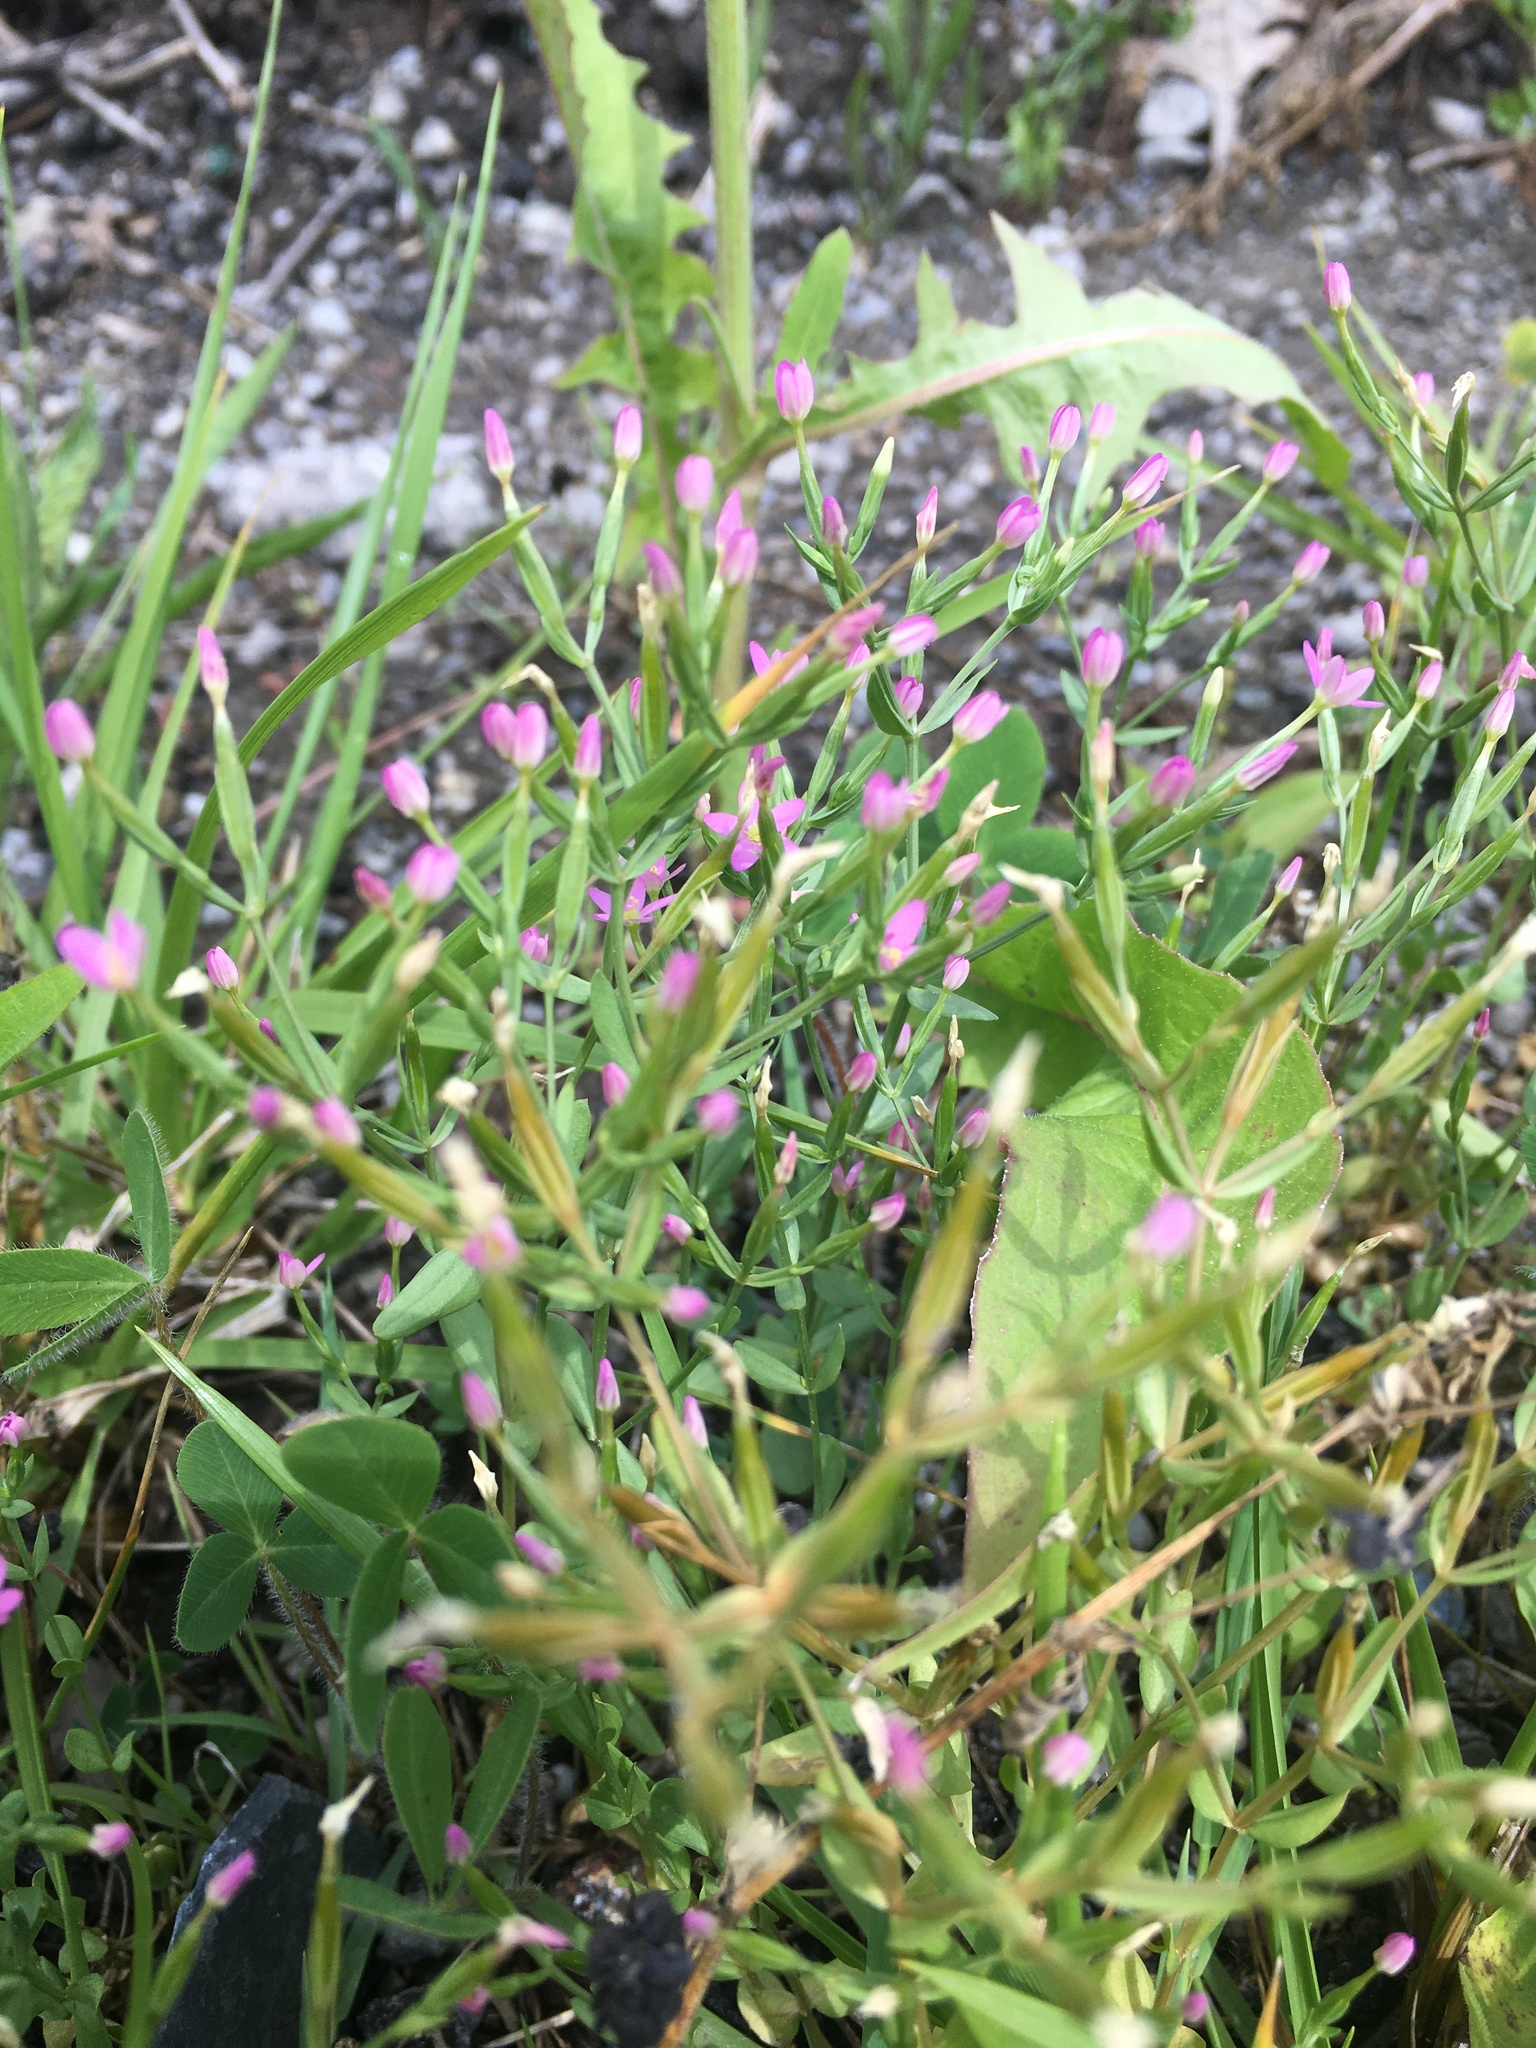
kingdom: Plantae
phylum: Tracheophyta
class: Magnoliopsida
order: Gentianales
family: Gentianaceae
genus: Centaurium
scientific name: Centaurium pulchellum
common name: Lesser centaury
